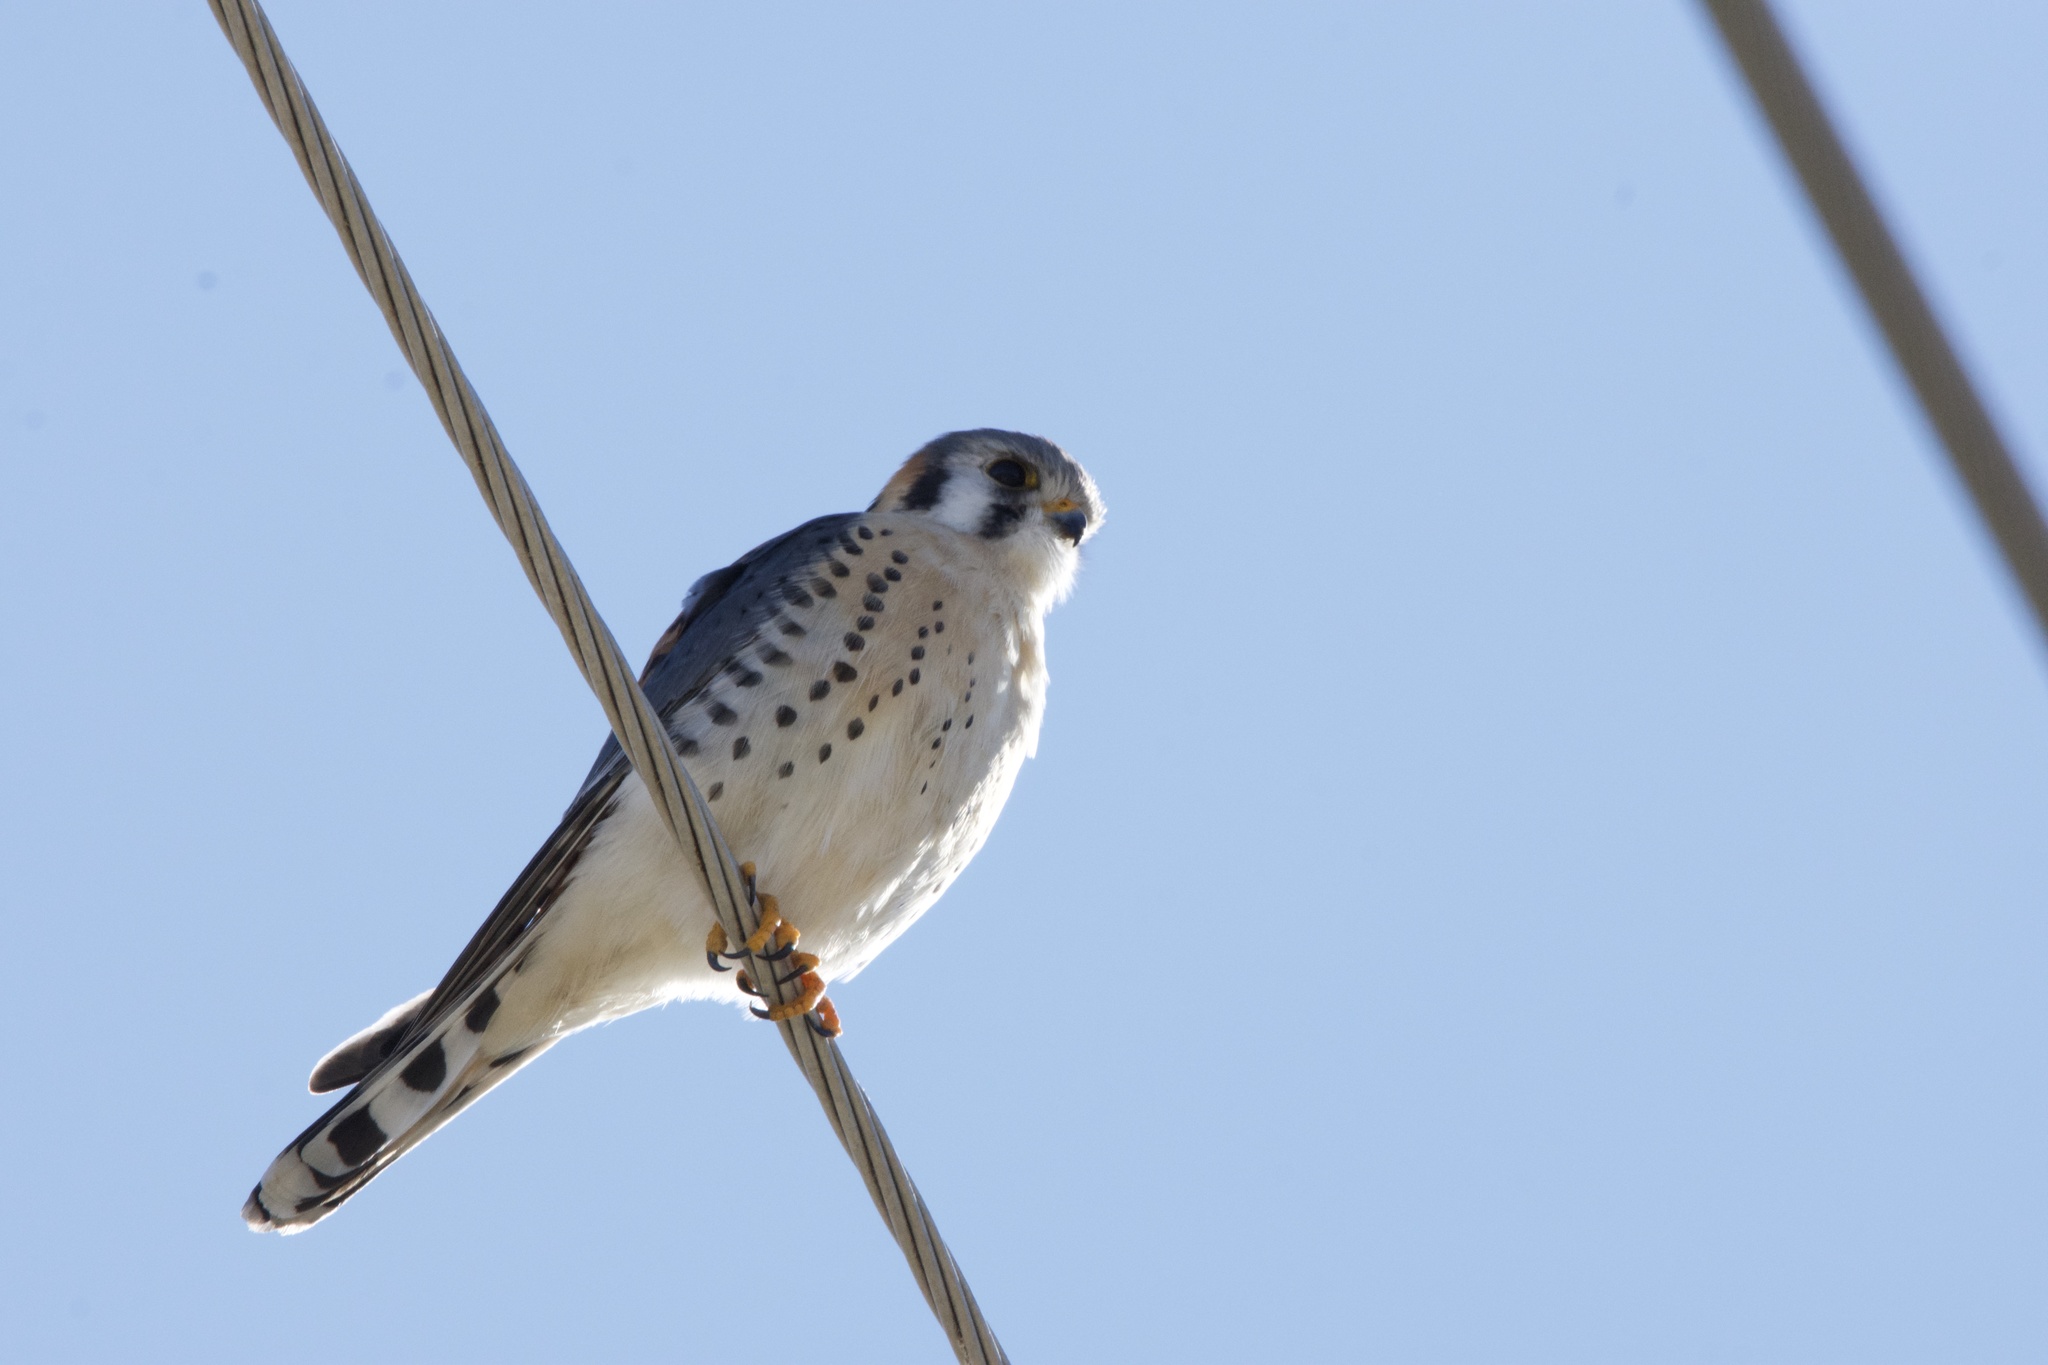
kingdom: Animalia
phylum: Chordata
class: Aves
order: Falconiformes
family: Falconidae
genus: Falco
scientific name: Falco sparverius
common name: American kestrel
